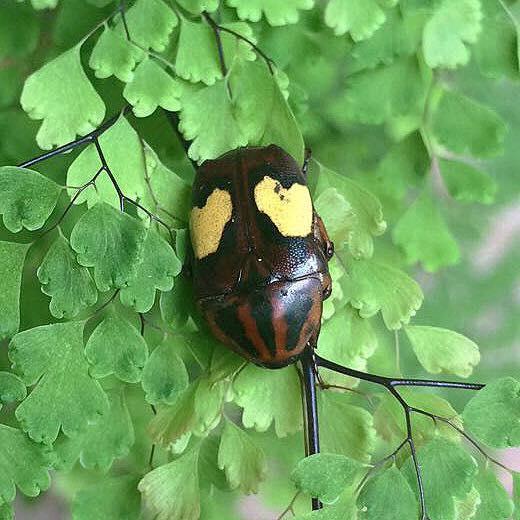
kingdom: Animalia
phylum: Arthropoda
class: Insecta
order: Coleoptera
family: Scarabaeidae
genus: Pedinorrhina
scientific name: Pedinorrhina
